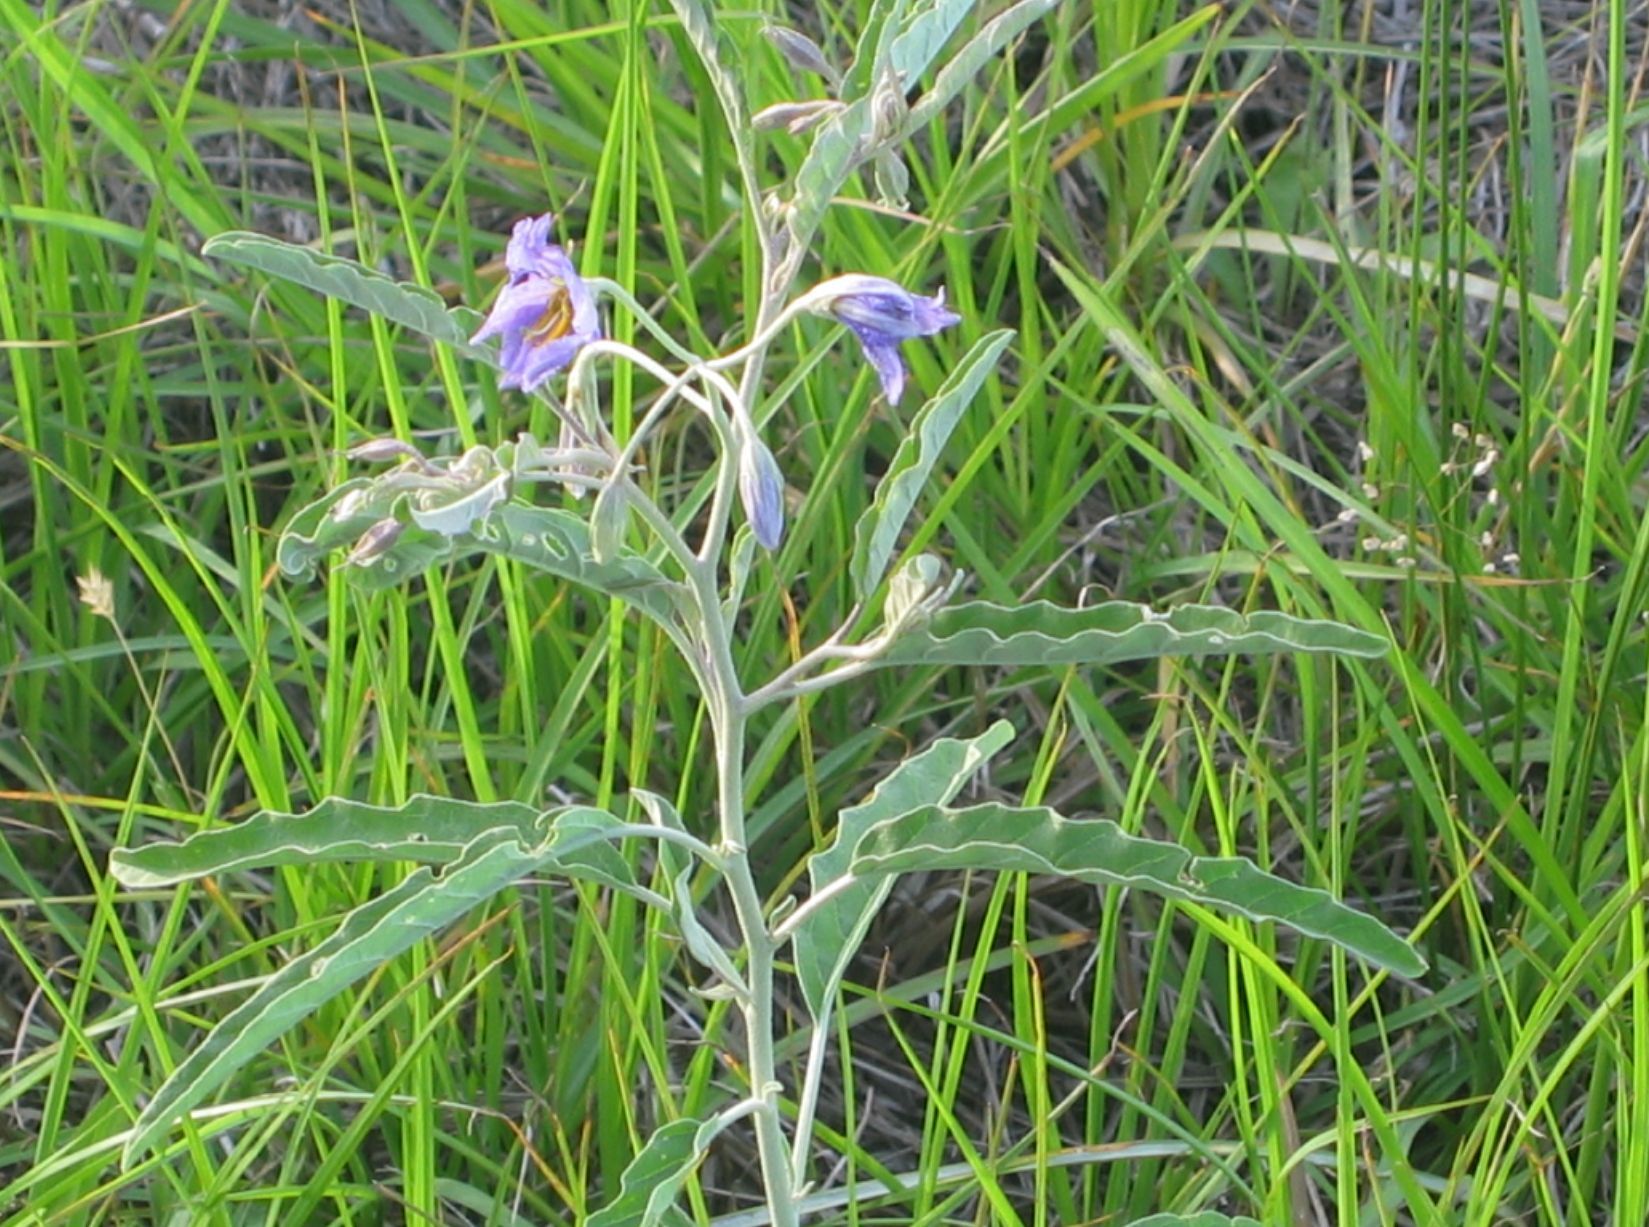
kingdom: Plantae
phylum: Tracheophyta
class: Magnoliopsida
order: Solanales
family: Solanaceae
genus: Solanum
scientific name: Solanum elaeagnifolium
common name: Silverleaf nightshade
